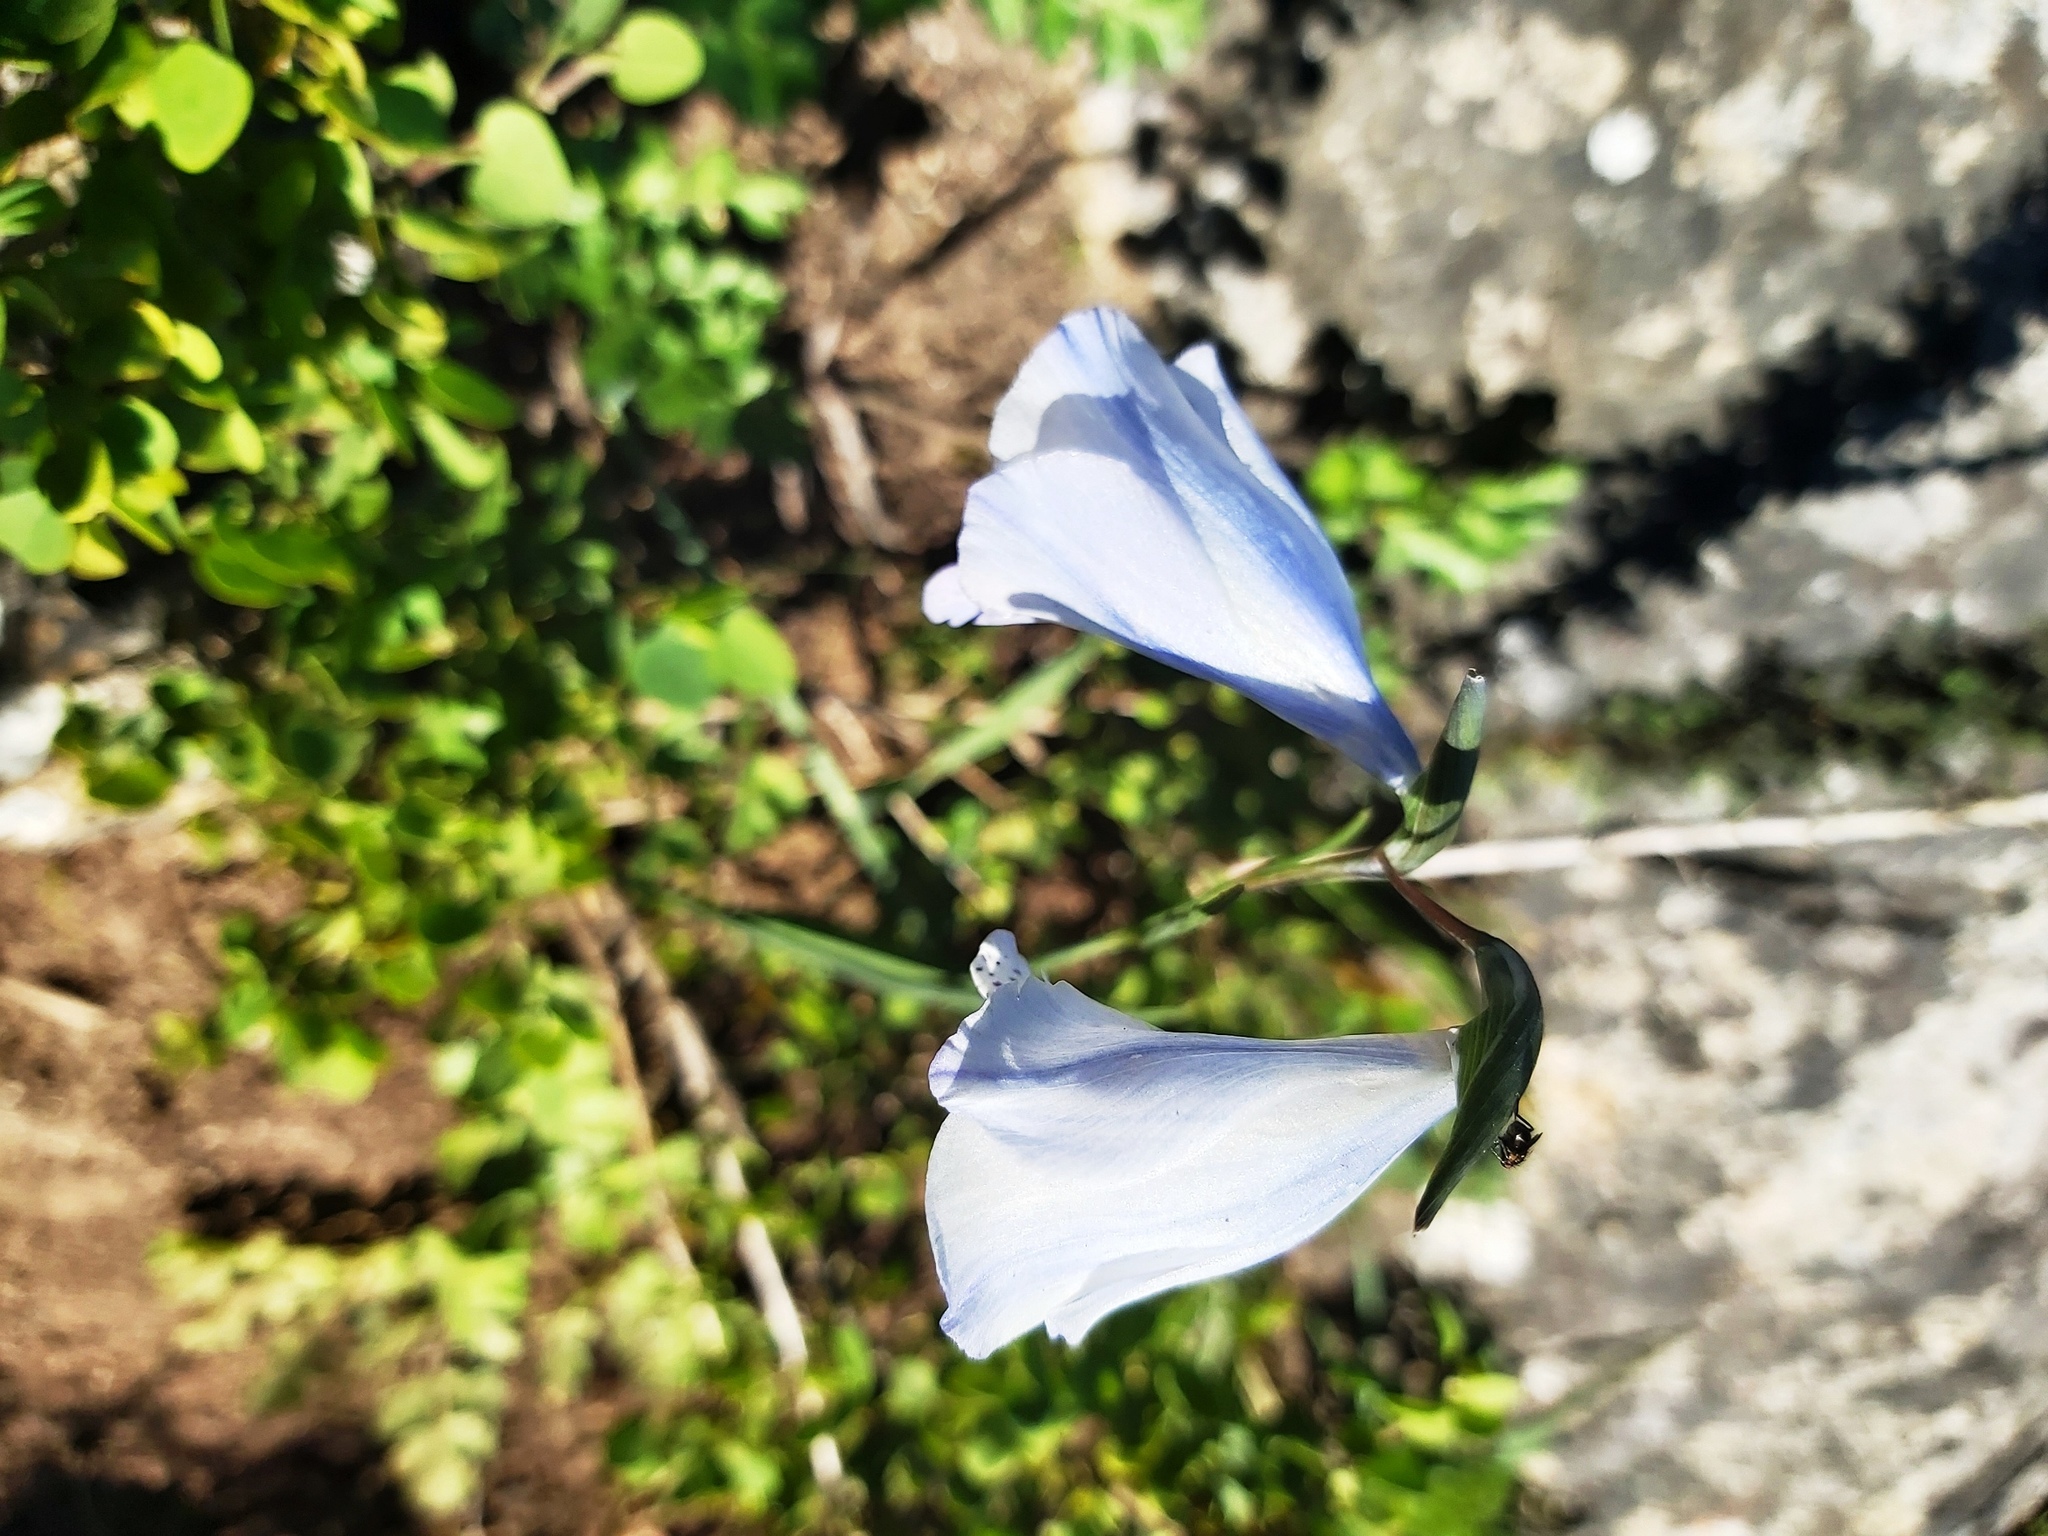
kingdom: Plantae
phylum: Tracheophyta
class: Liliopsida
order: Asparagales
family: Iridaceae
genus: Gladiolus
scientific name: Gladiolus caeruleus
